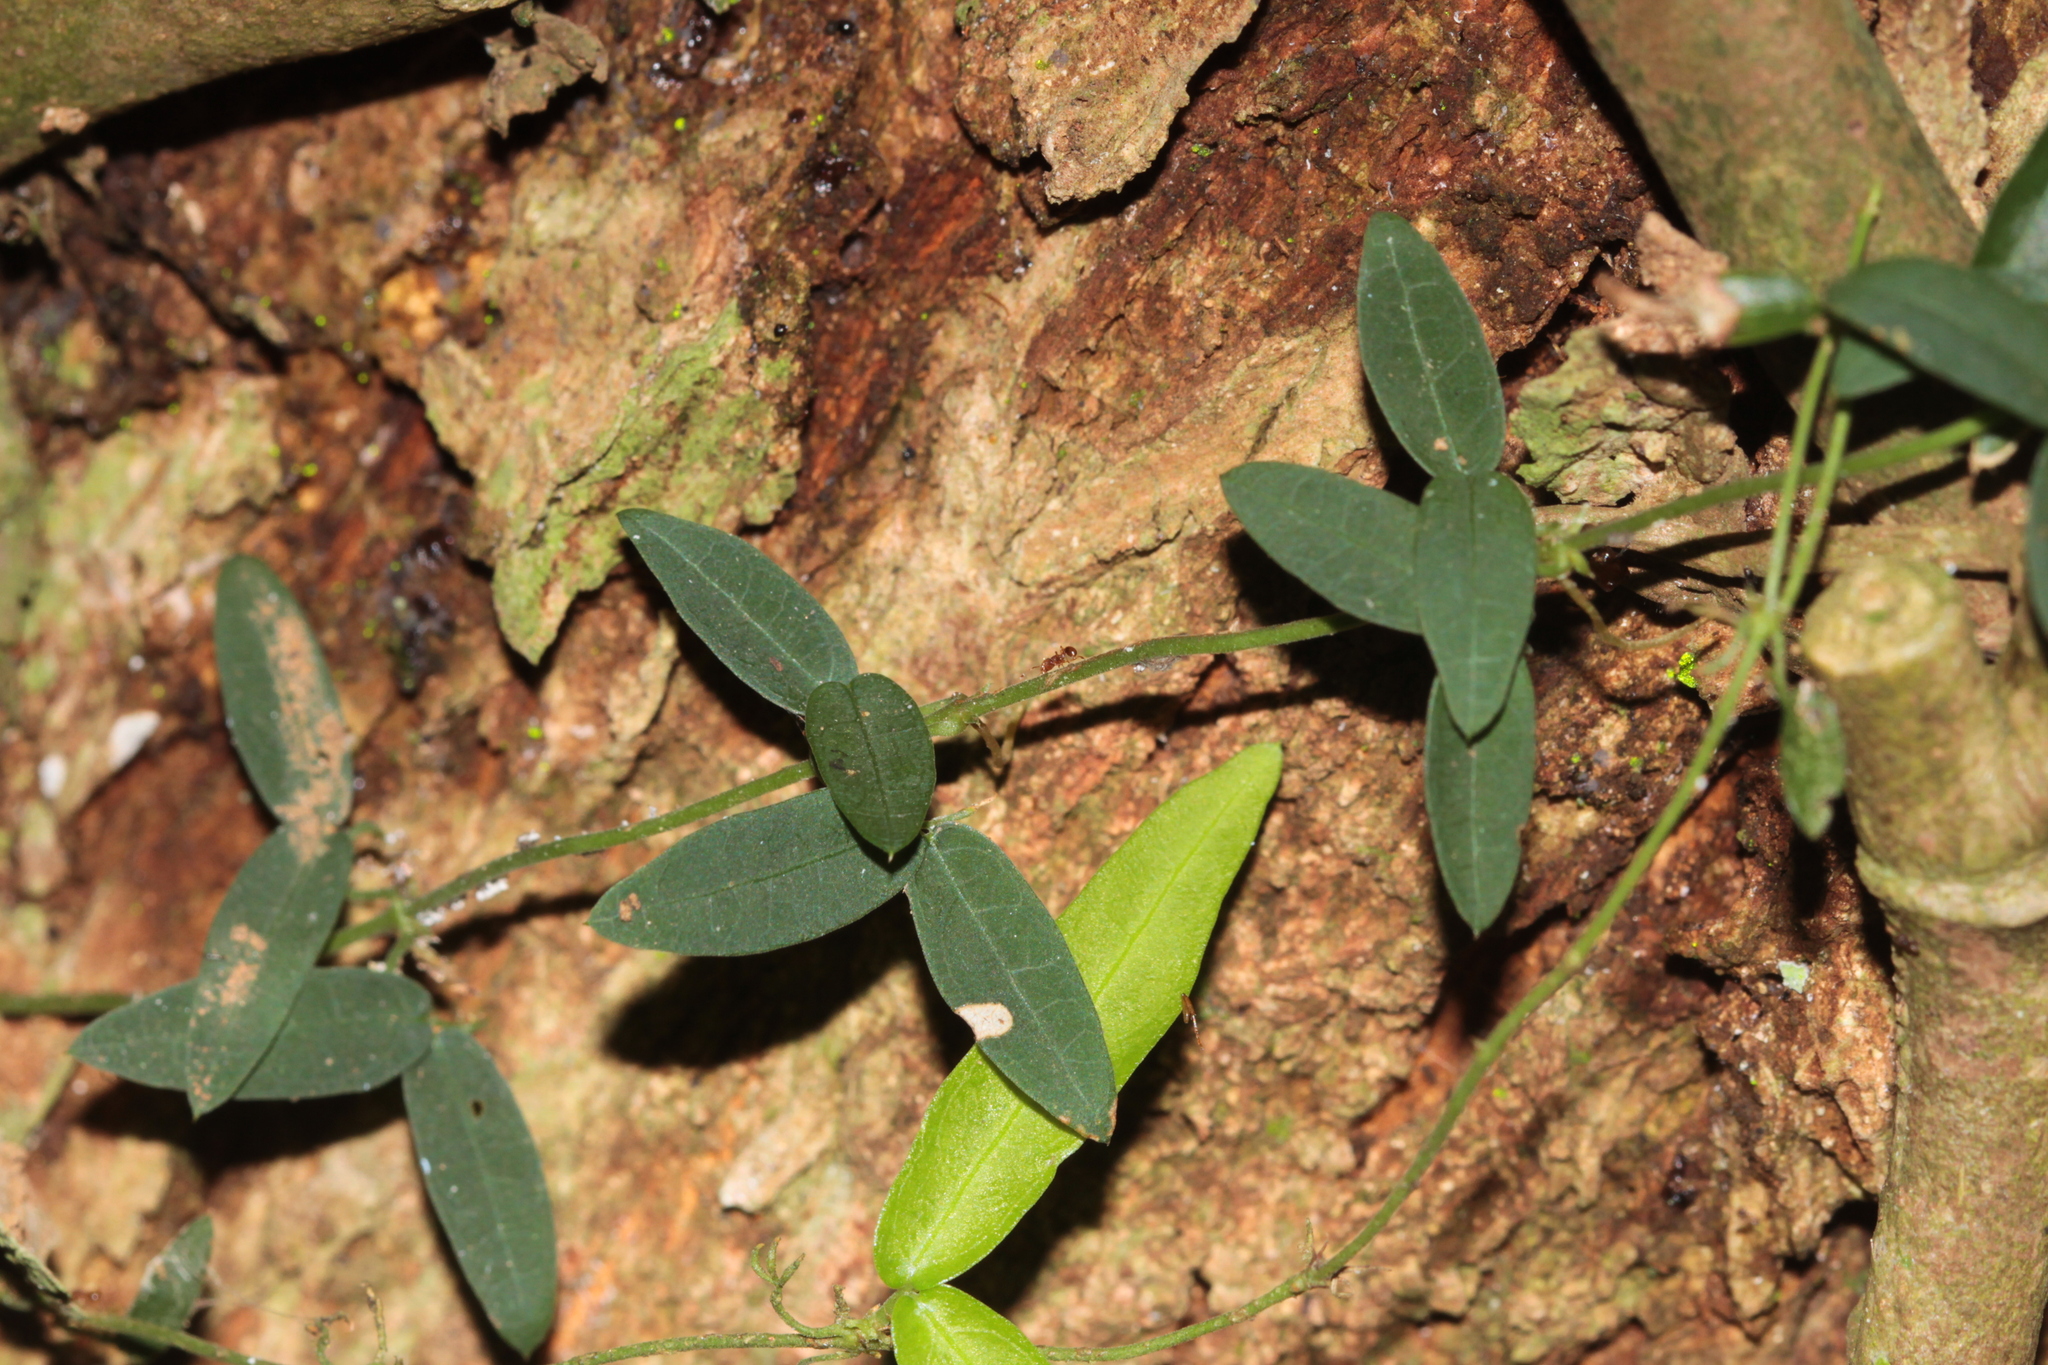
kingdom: Plantae
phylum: Tracheophyta
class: Magnoliopsida
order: Lamiales
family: Bignoniaceae
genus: Dolichandra
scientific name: Dolichandra unguis-cati
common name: Catclaw vine
